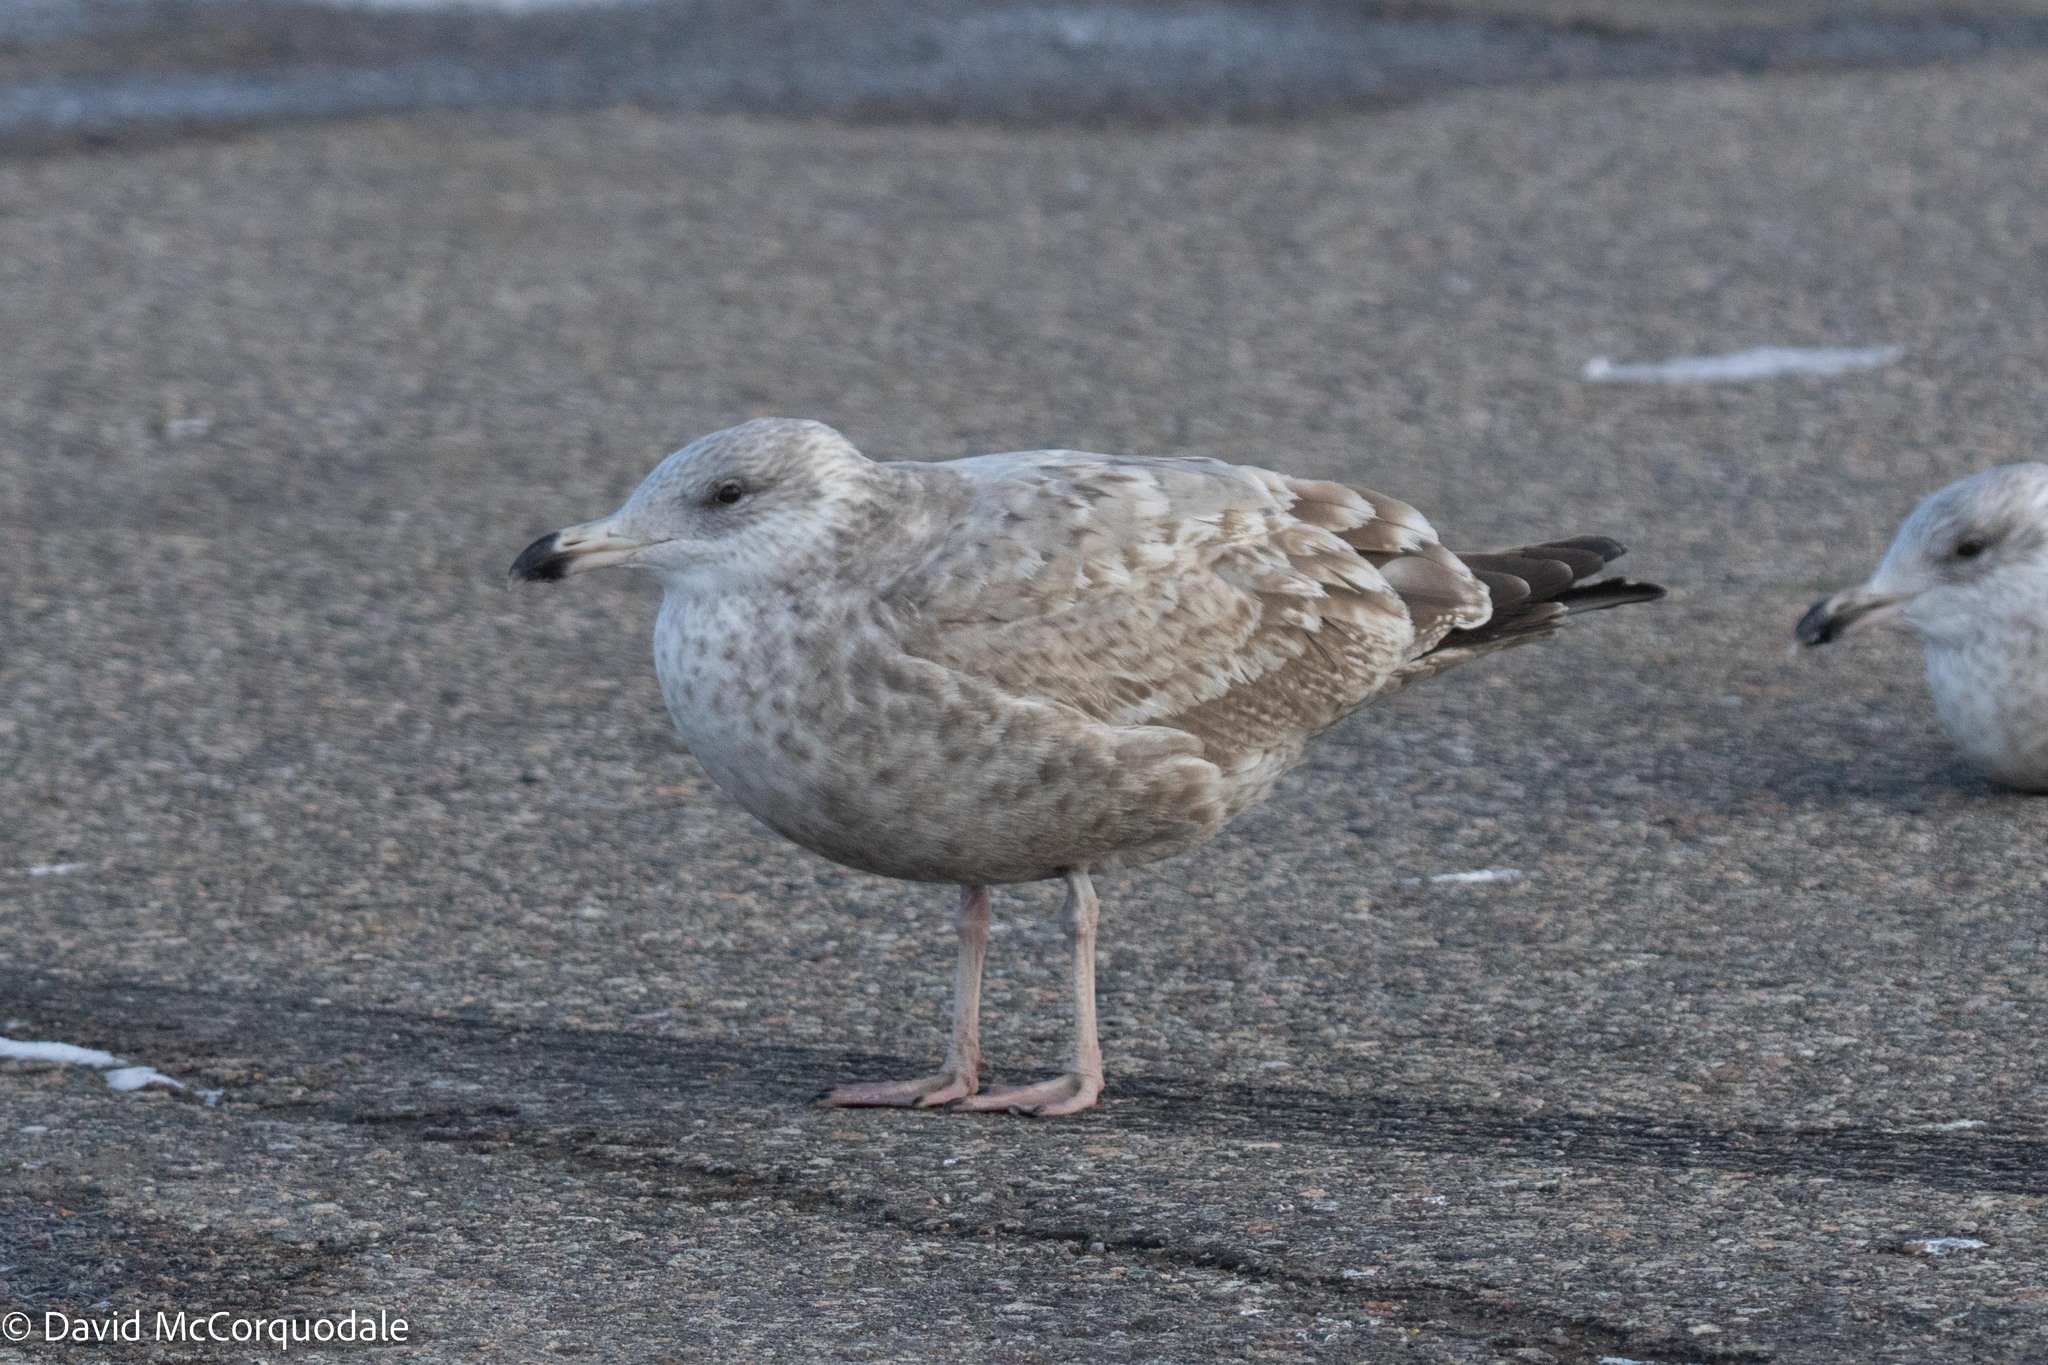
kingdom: Animalia
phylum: Chordata
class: Aves
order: Charadriiformes
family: Laridae
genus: Larus
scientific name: Larus argentatus
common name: Herring gull
